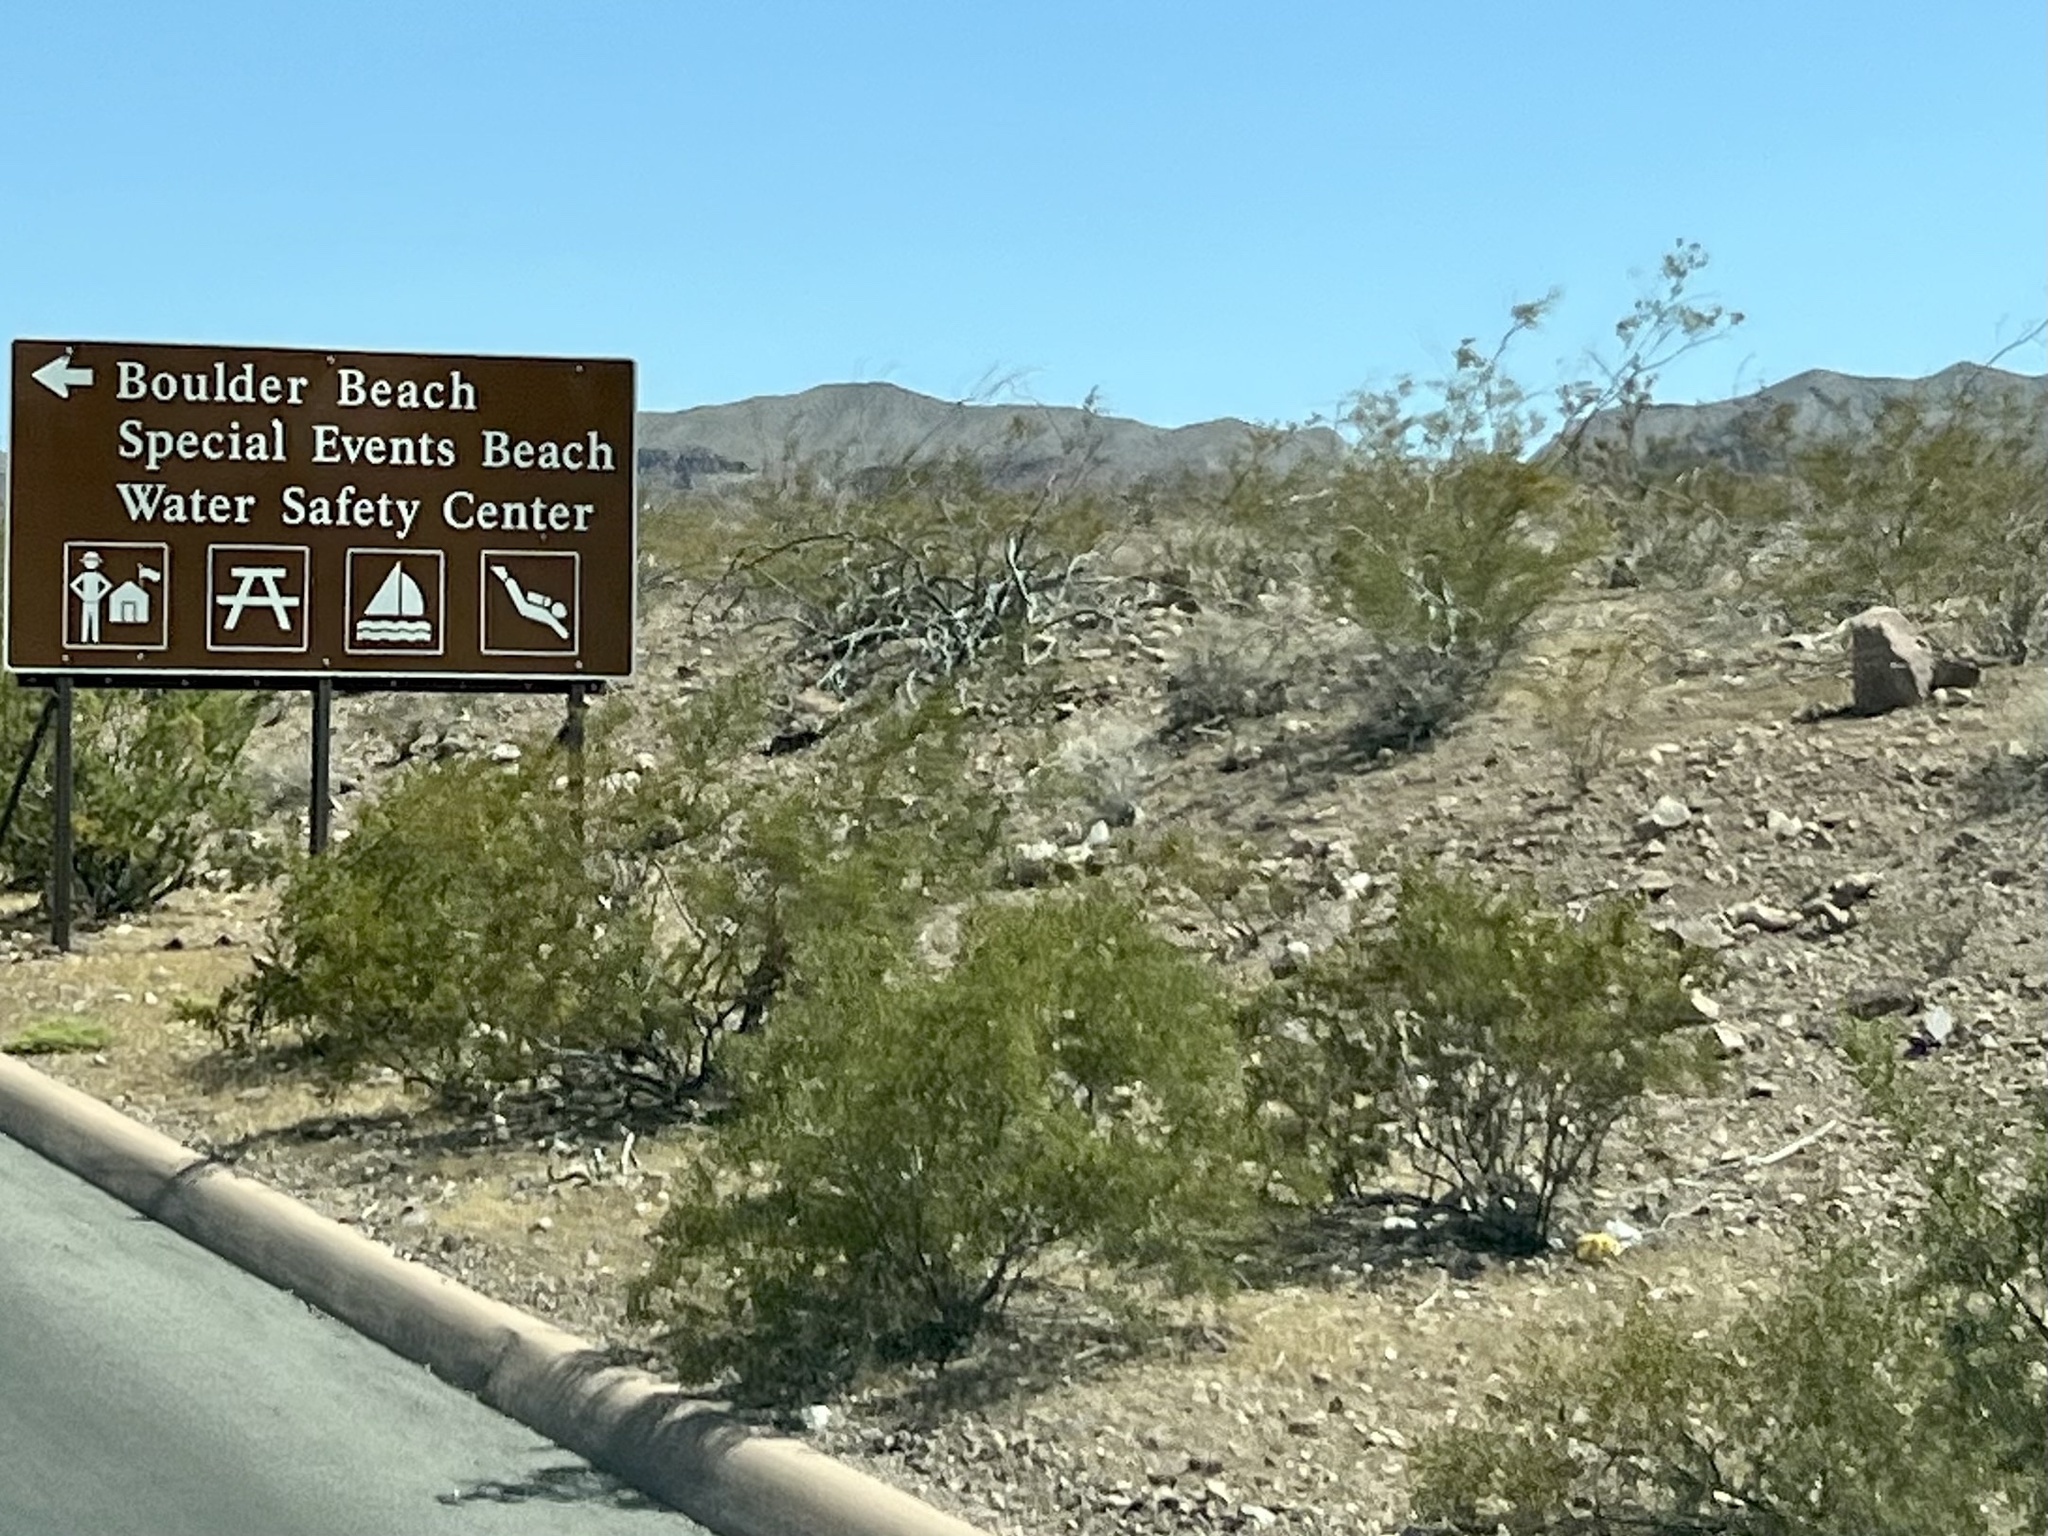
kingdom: Plantae
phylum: Tracheophyta
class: Magnoliopsida
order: Zygophyllales
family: Zygophyllaceae
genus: Larrea
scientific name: Larrea tridentata
